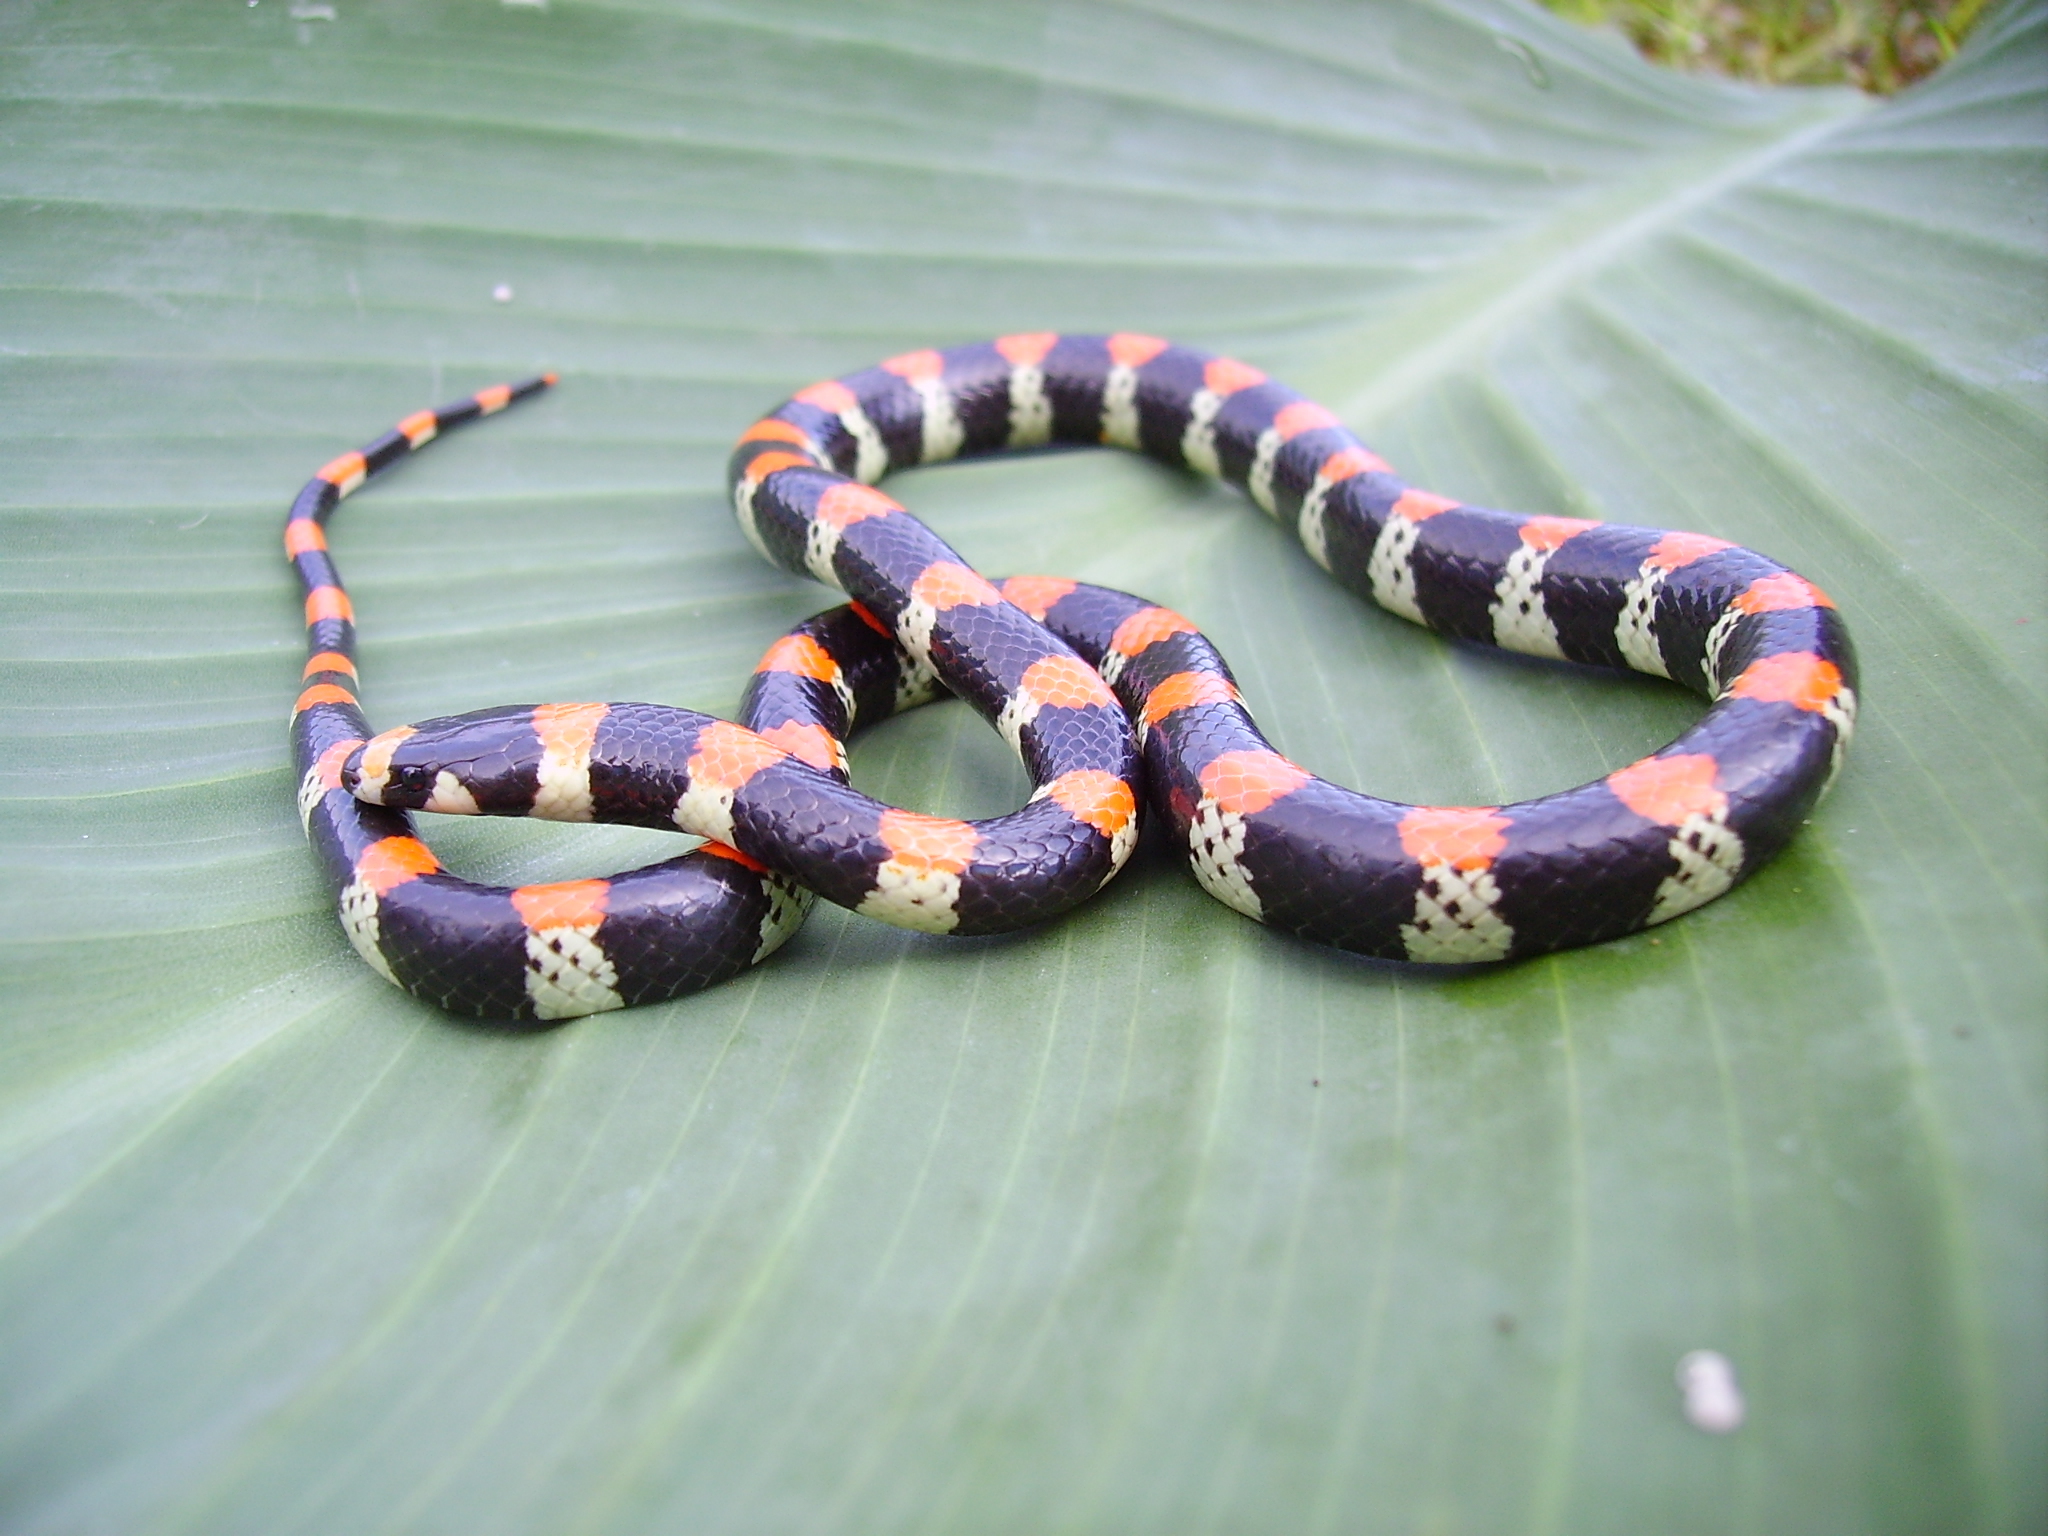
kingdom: Animalia
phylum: Chordata
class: Squamata
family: Colubridae
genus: Scolecophis
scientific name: Scolecophis atrocinctus
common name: Black-banded snake
